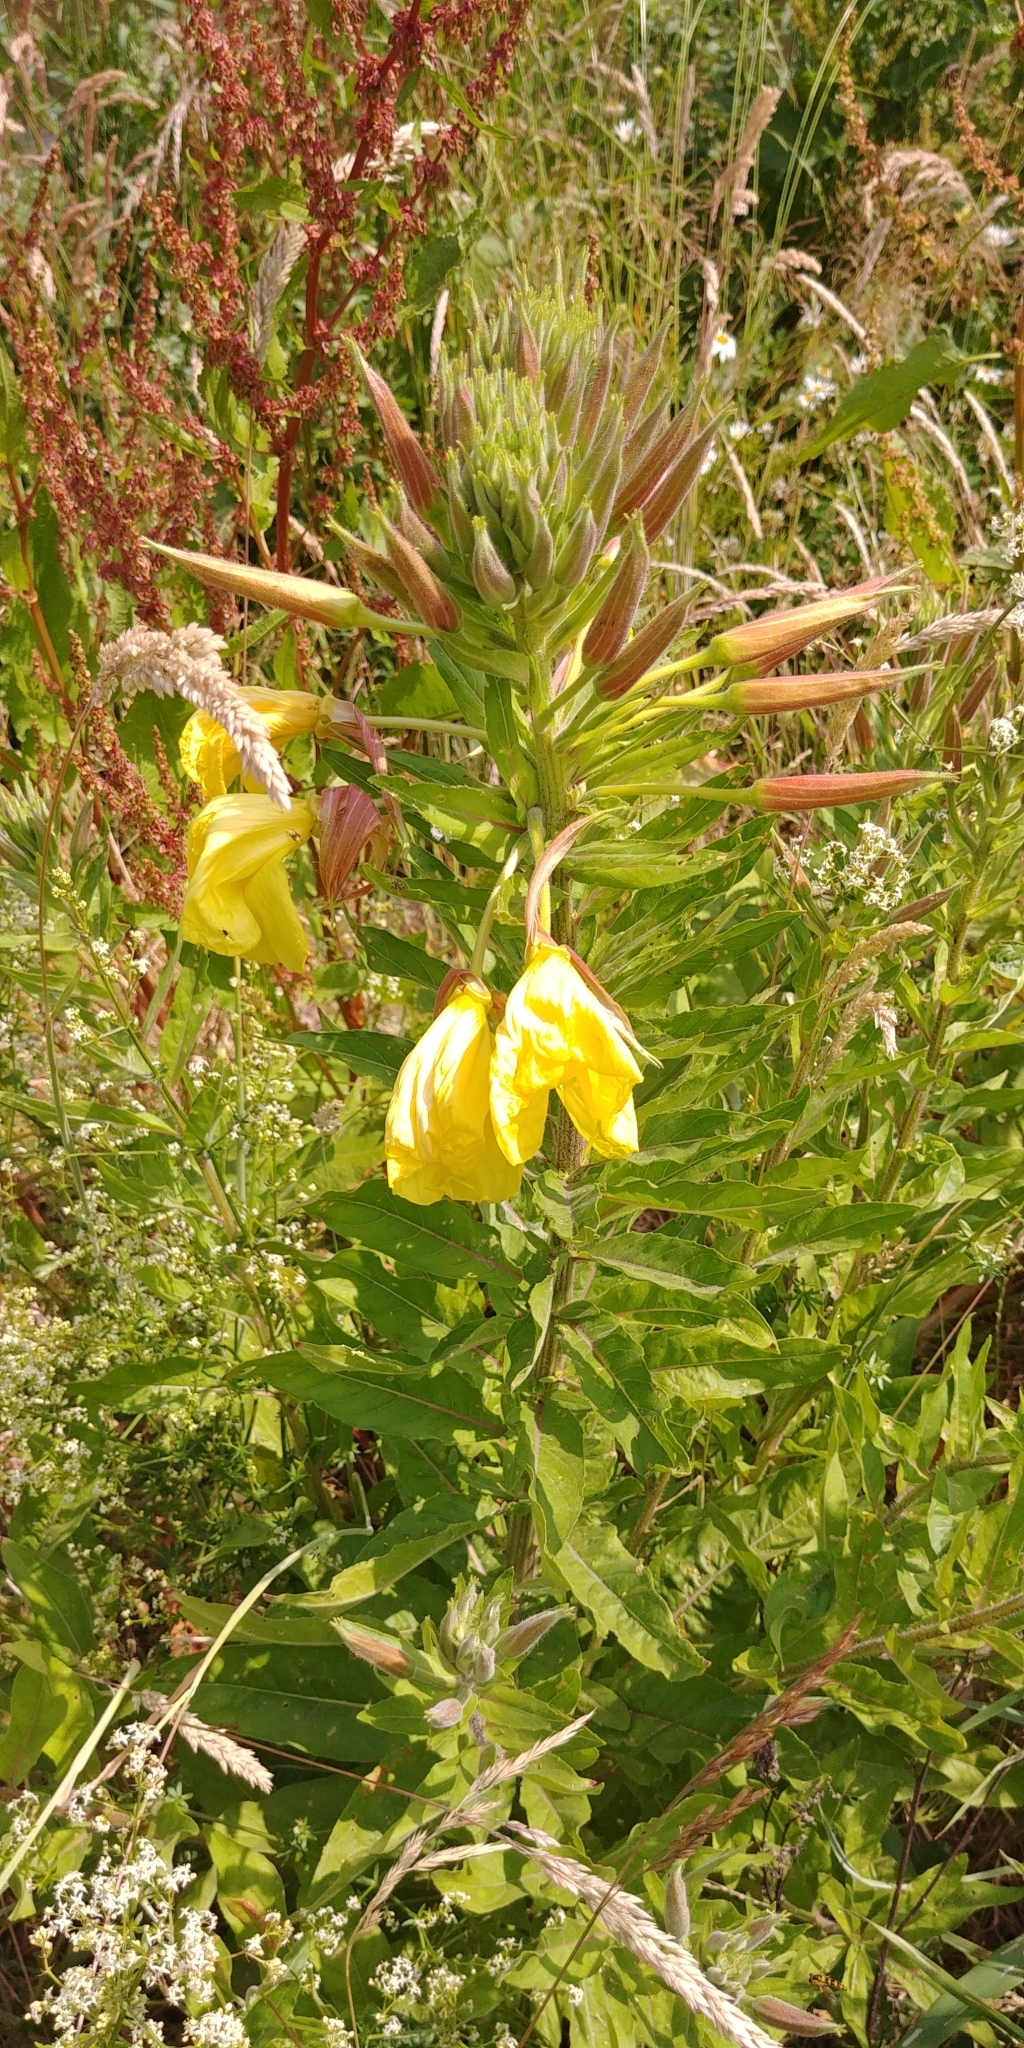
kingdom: Plantae
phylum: Tracheophyta
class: Magnoliopsida
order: Myrtales
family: Onagraceae
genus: Oenothera
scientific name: Oenothera glazioviana
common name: Large-flowered evening-primrose
